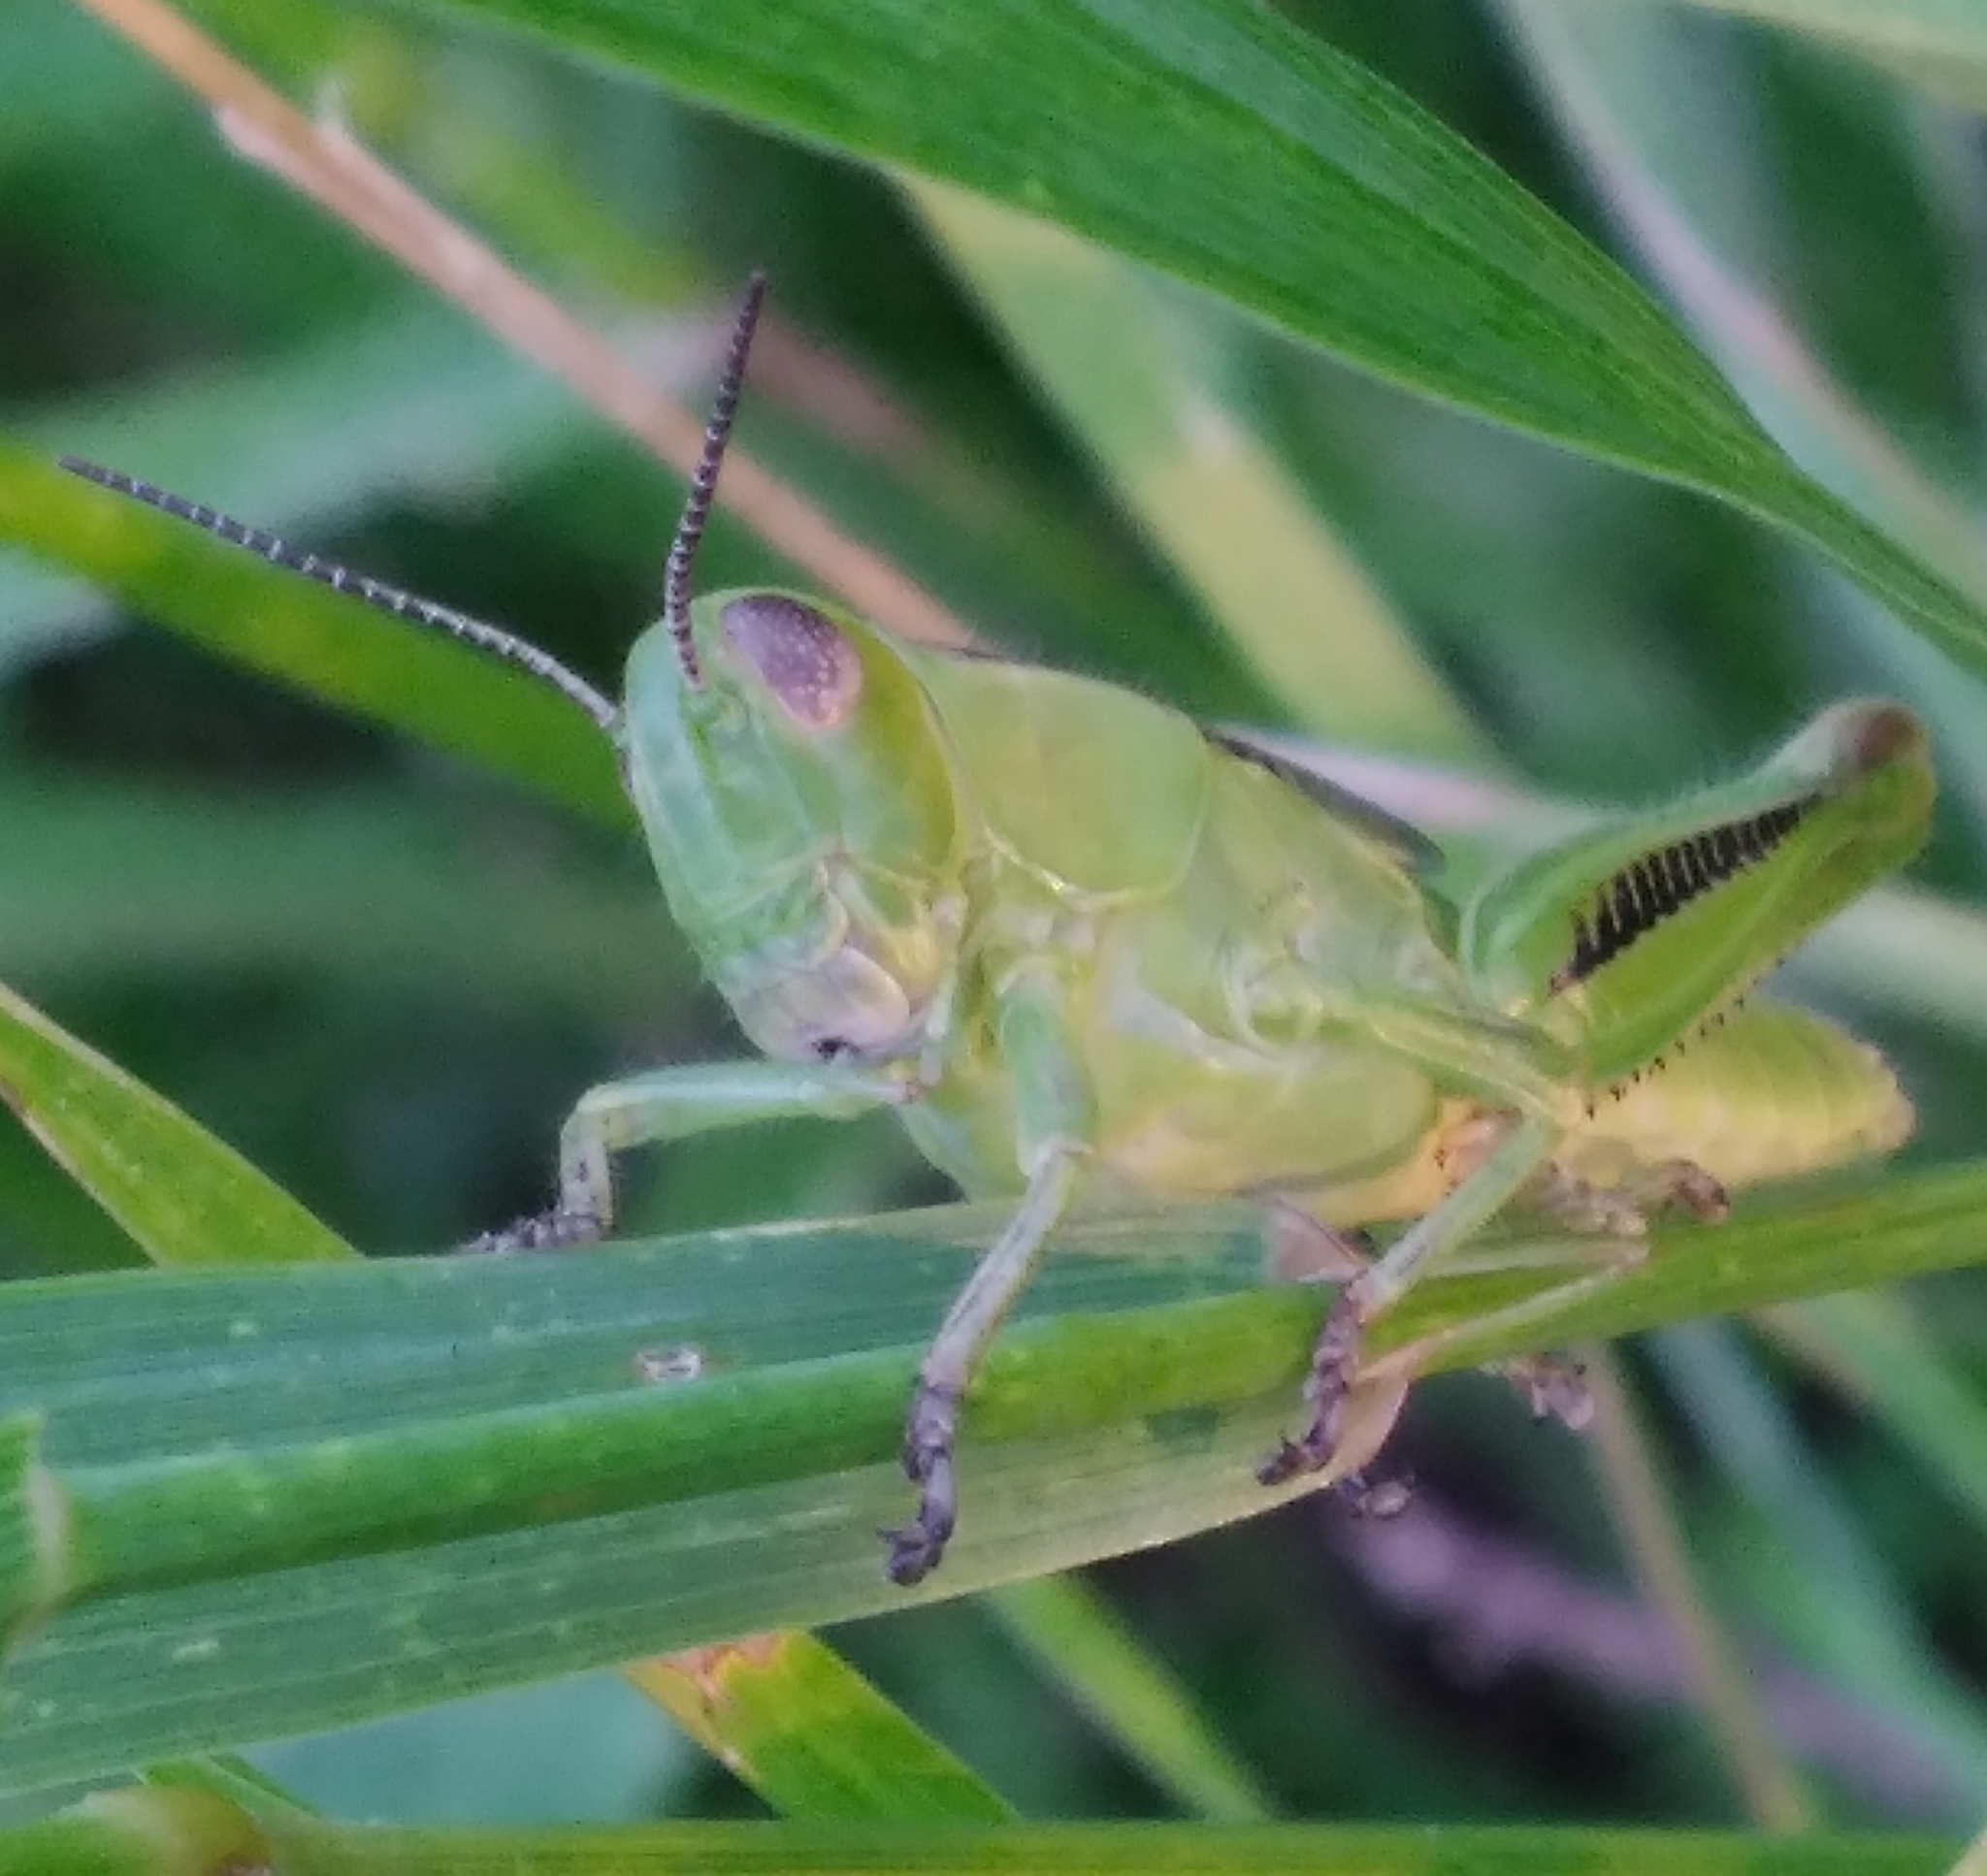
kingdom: Animalia
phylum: Arthropoda
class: Insecta
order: Orthoptera
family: Acrididae
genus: Melanoplus
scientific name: Melanoplus bivittatus
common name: Two-striped grasshopper
